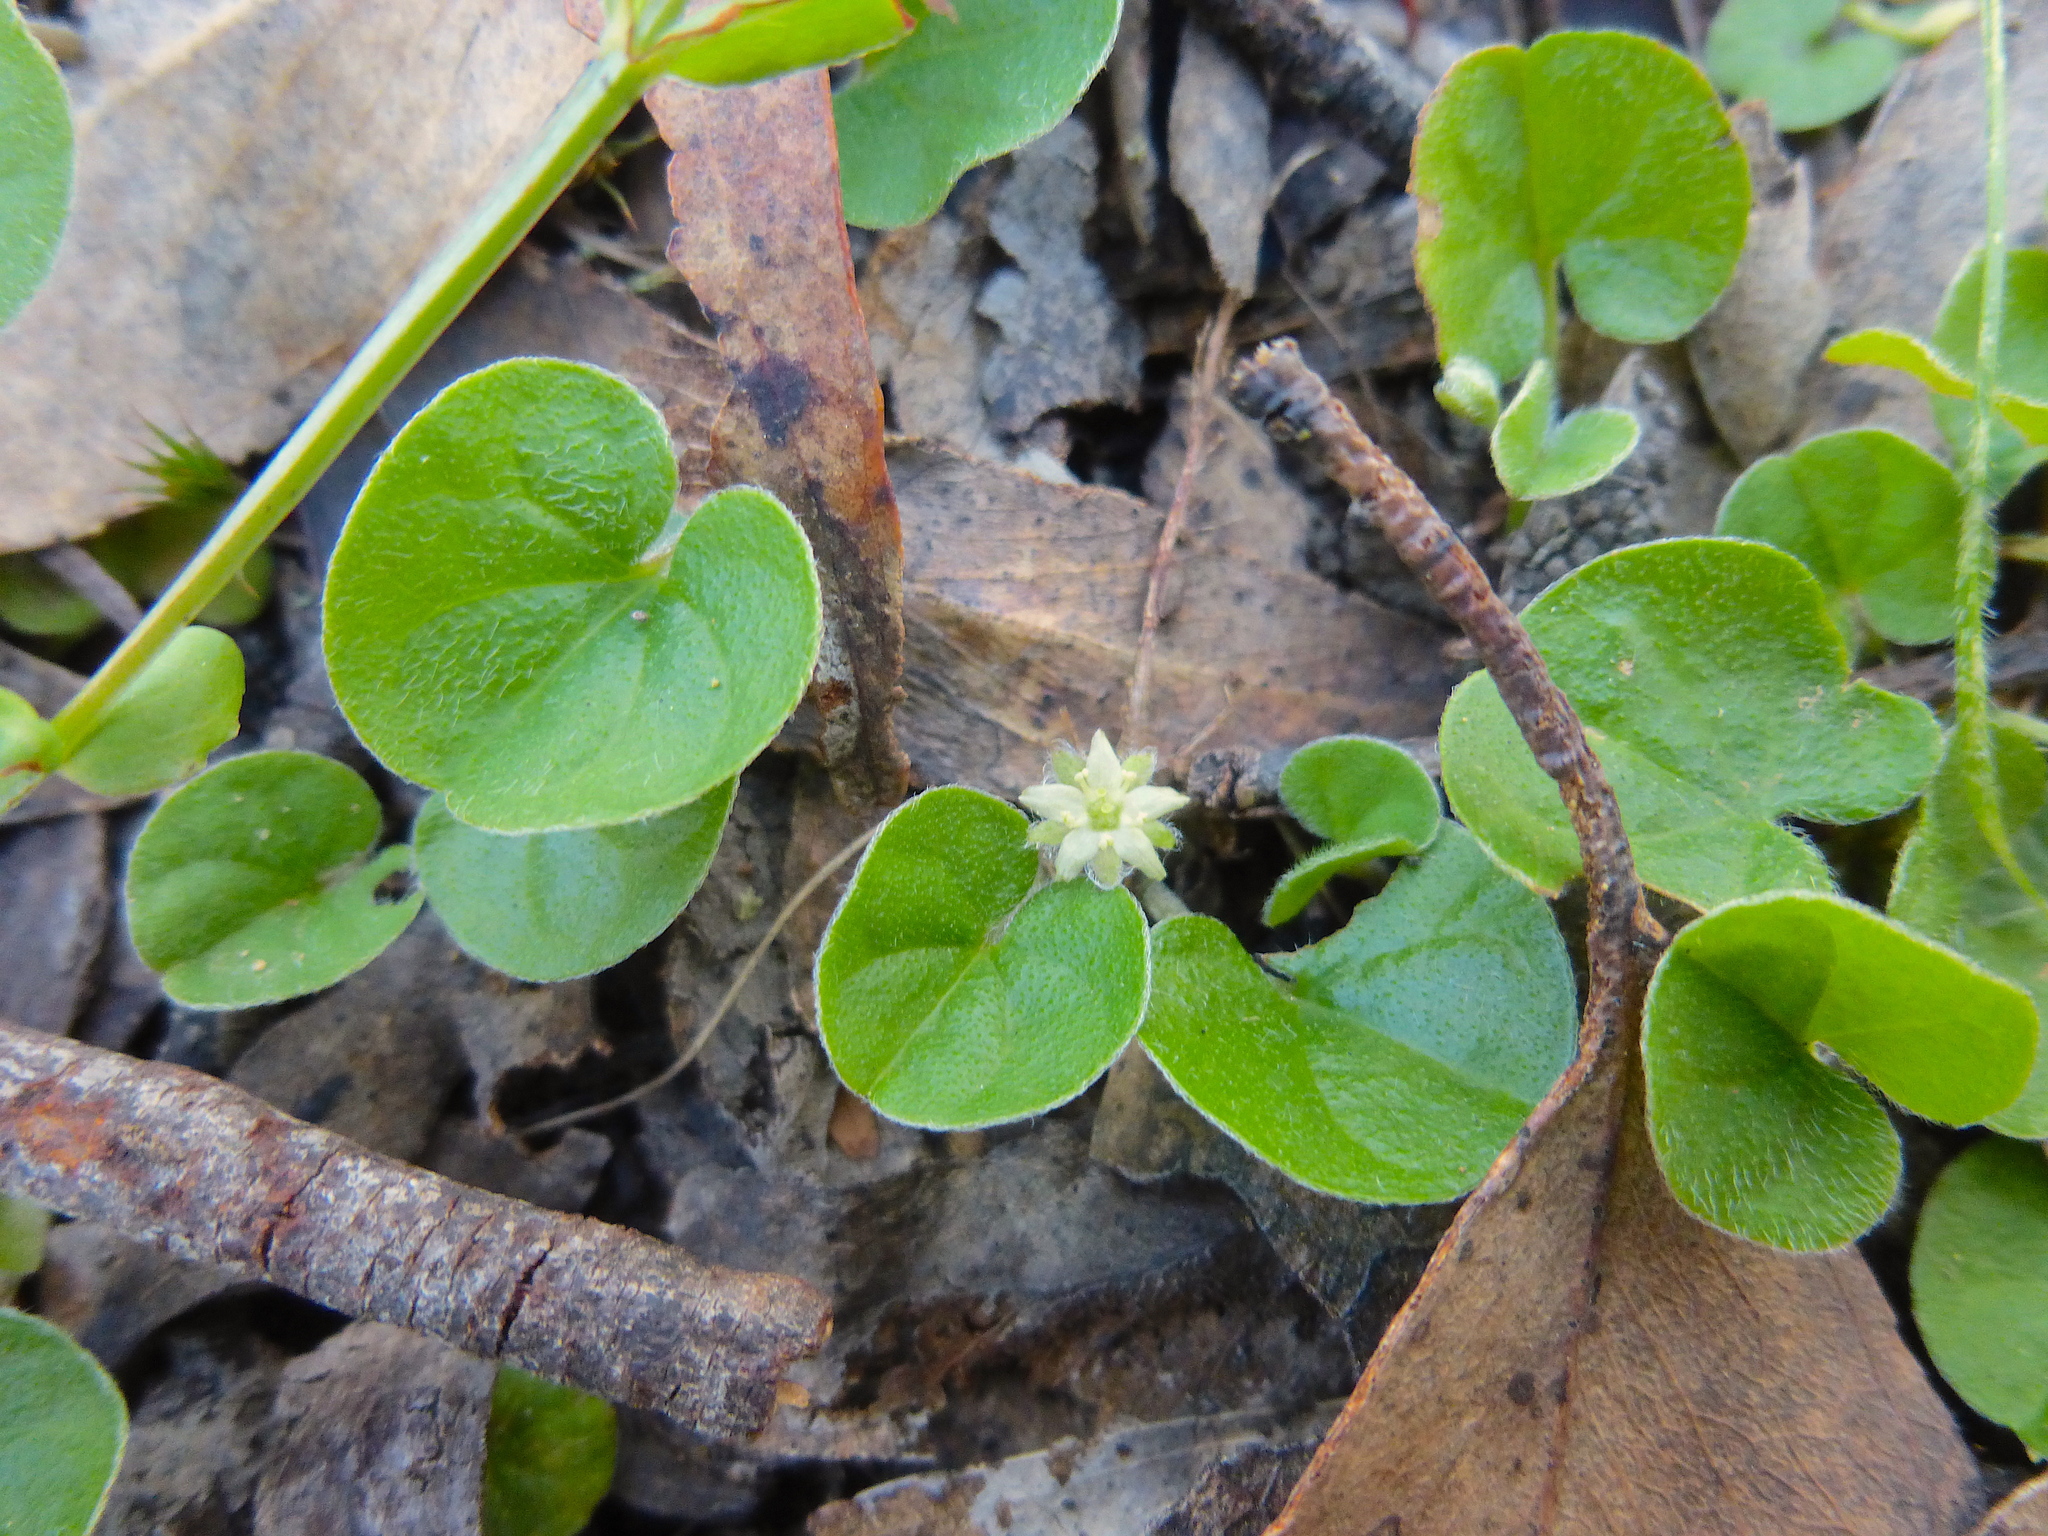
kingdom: Plantae
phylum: Tracheophyta
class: Magnoliopsida
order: Solanales
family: Convolvulaceae
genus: Dichondra
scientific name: Dichondra repens
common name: Kidneyweed
